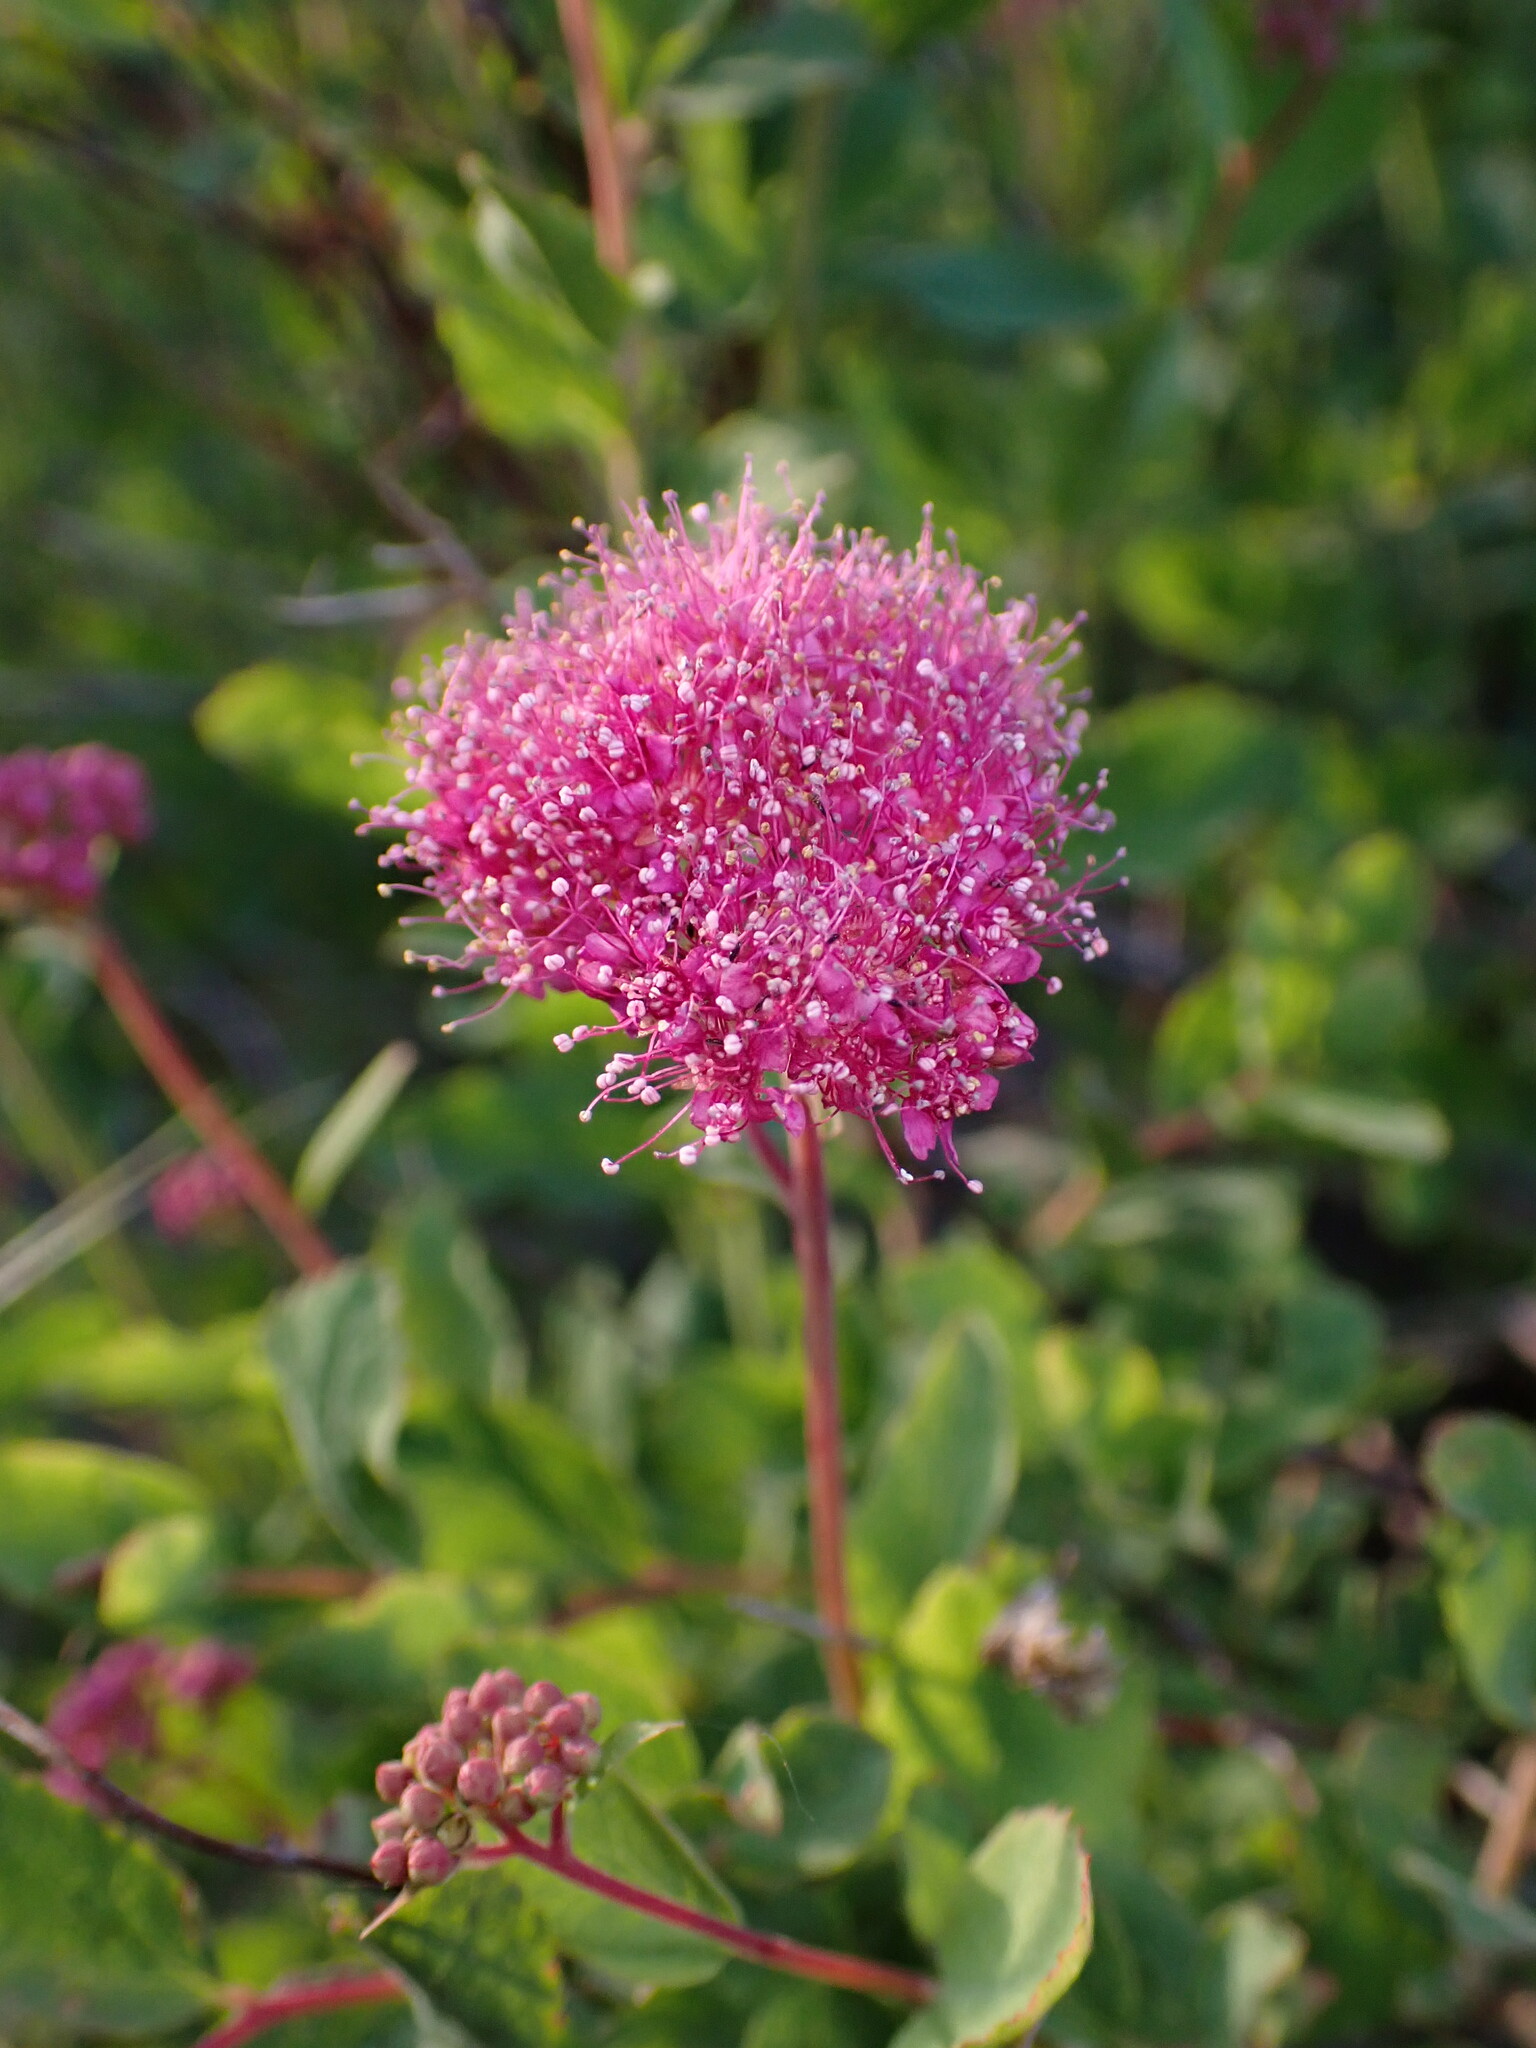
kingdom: Plantae
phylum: Tracheophyta
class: Magnoliopsida
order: Rosales
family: Rosaceae
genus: Spiraea
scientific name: Spiraea splendens
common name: Subalpine meadowsweet
